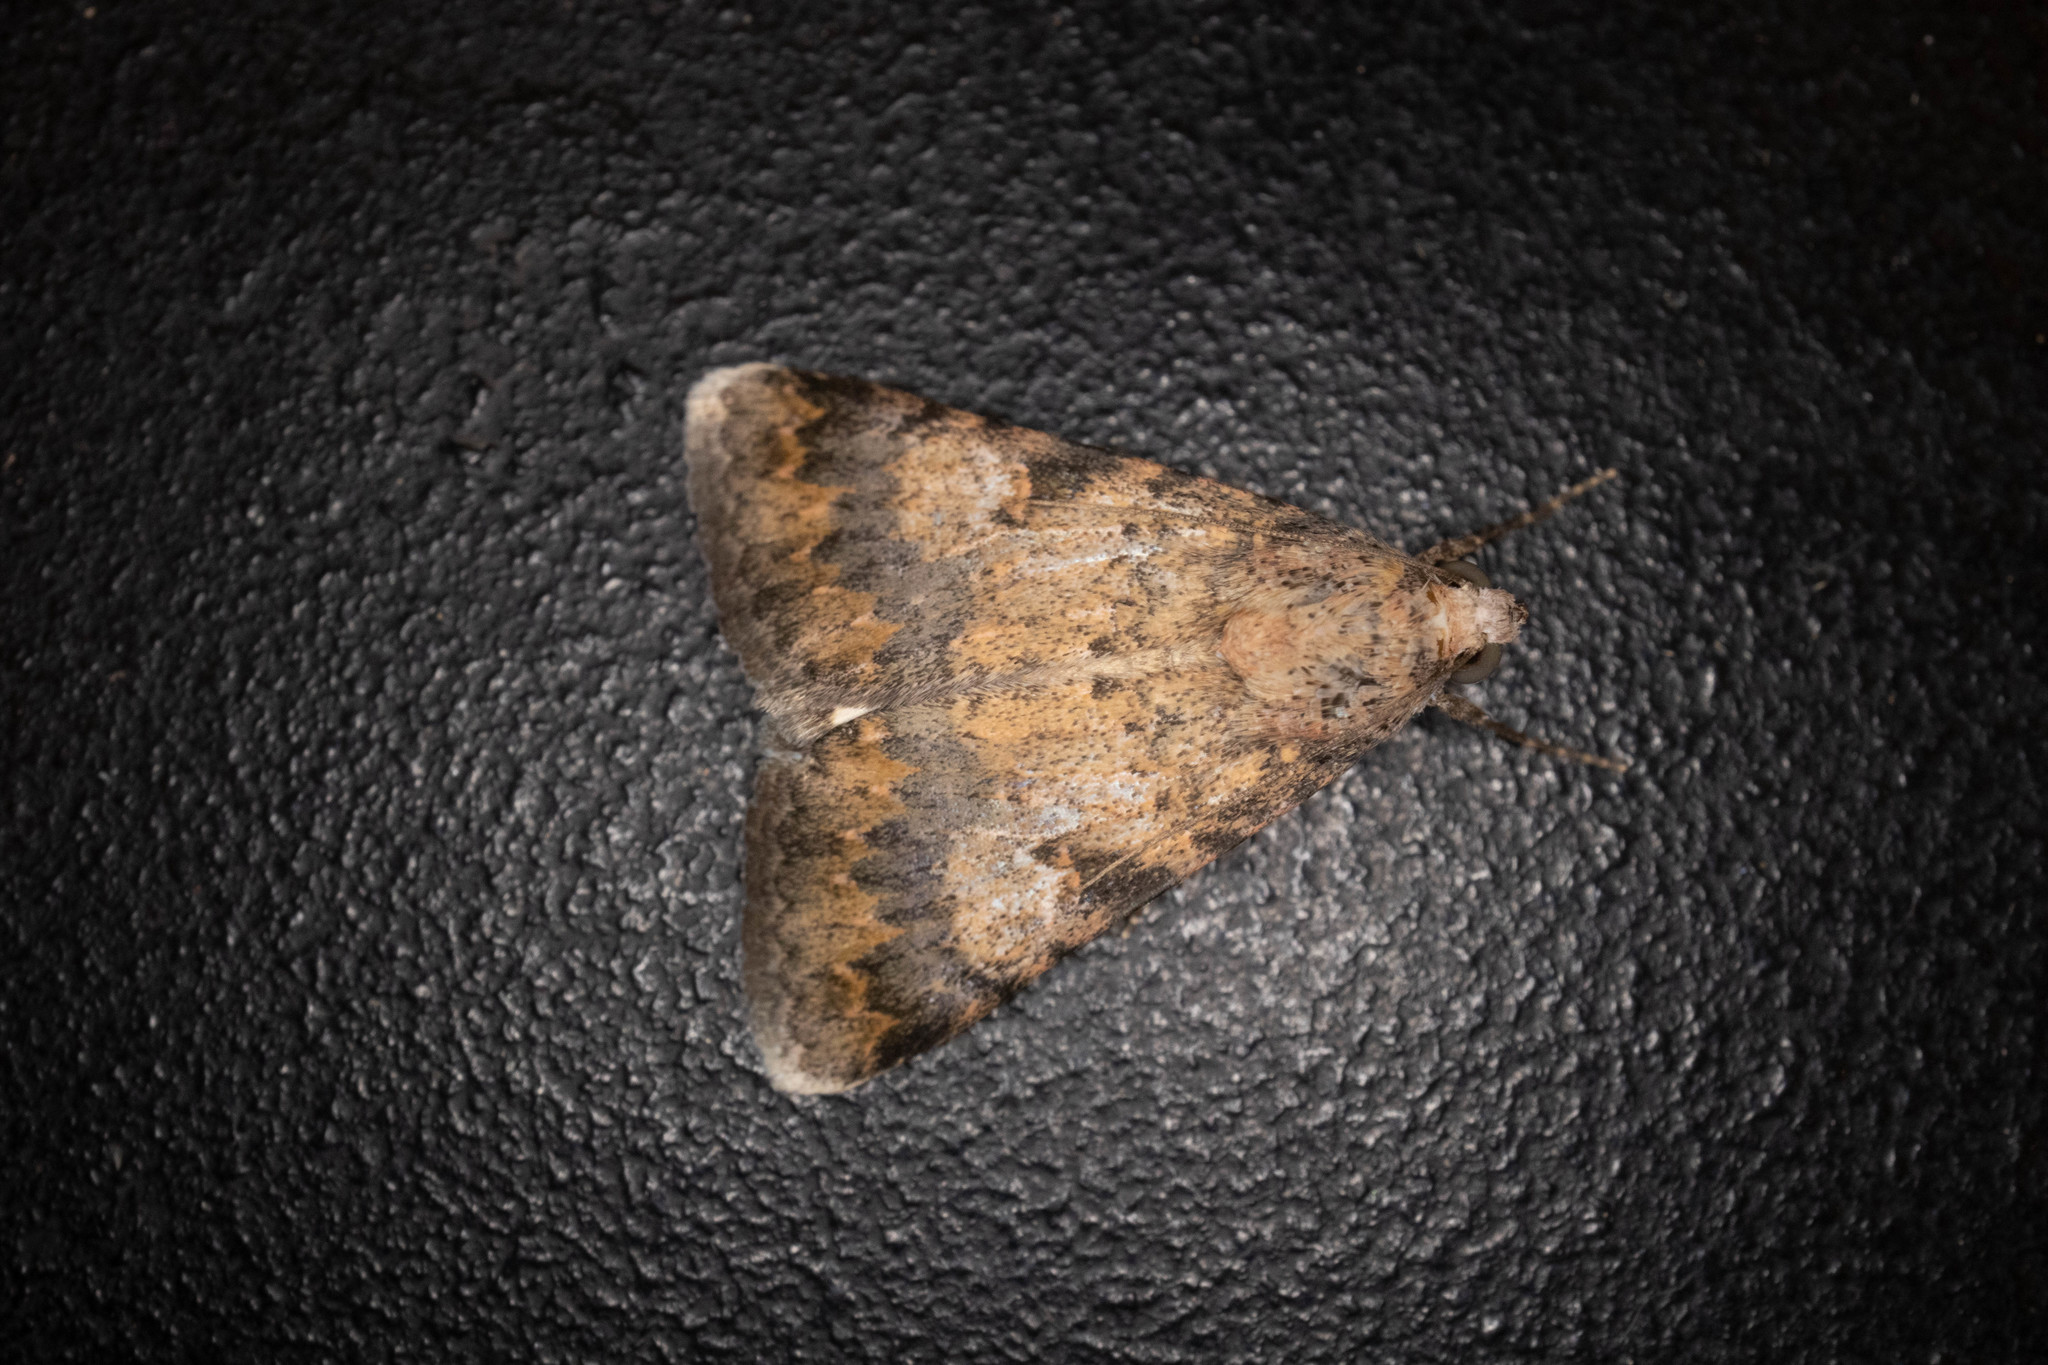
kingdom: Animalia
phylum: Arthropoda
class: Insecta
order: Lepidoptera
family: Erebidae
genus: Melipotis
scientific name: Melipotis jucunda
